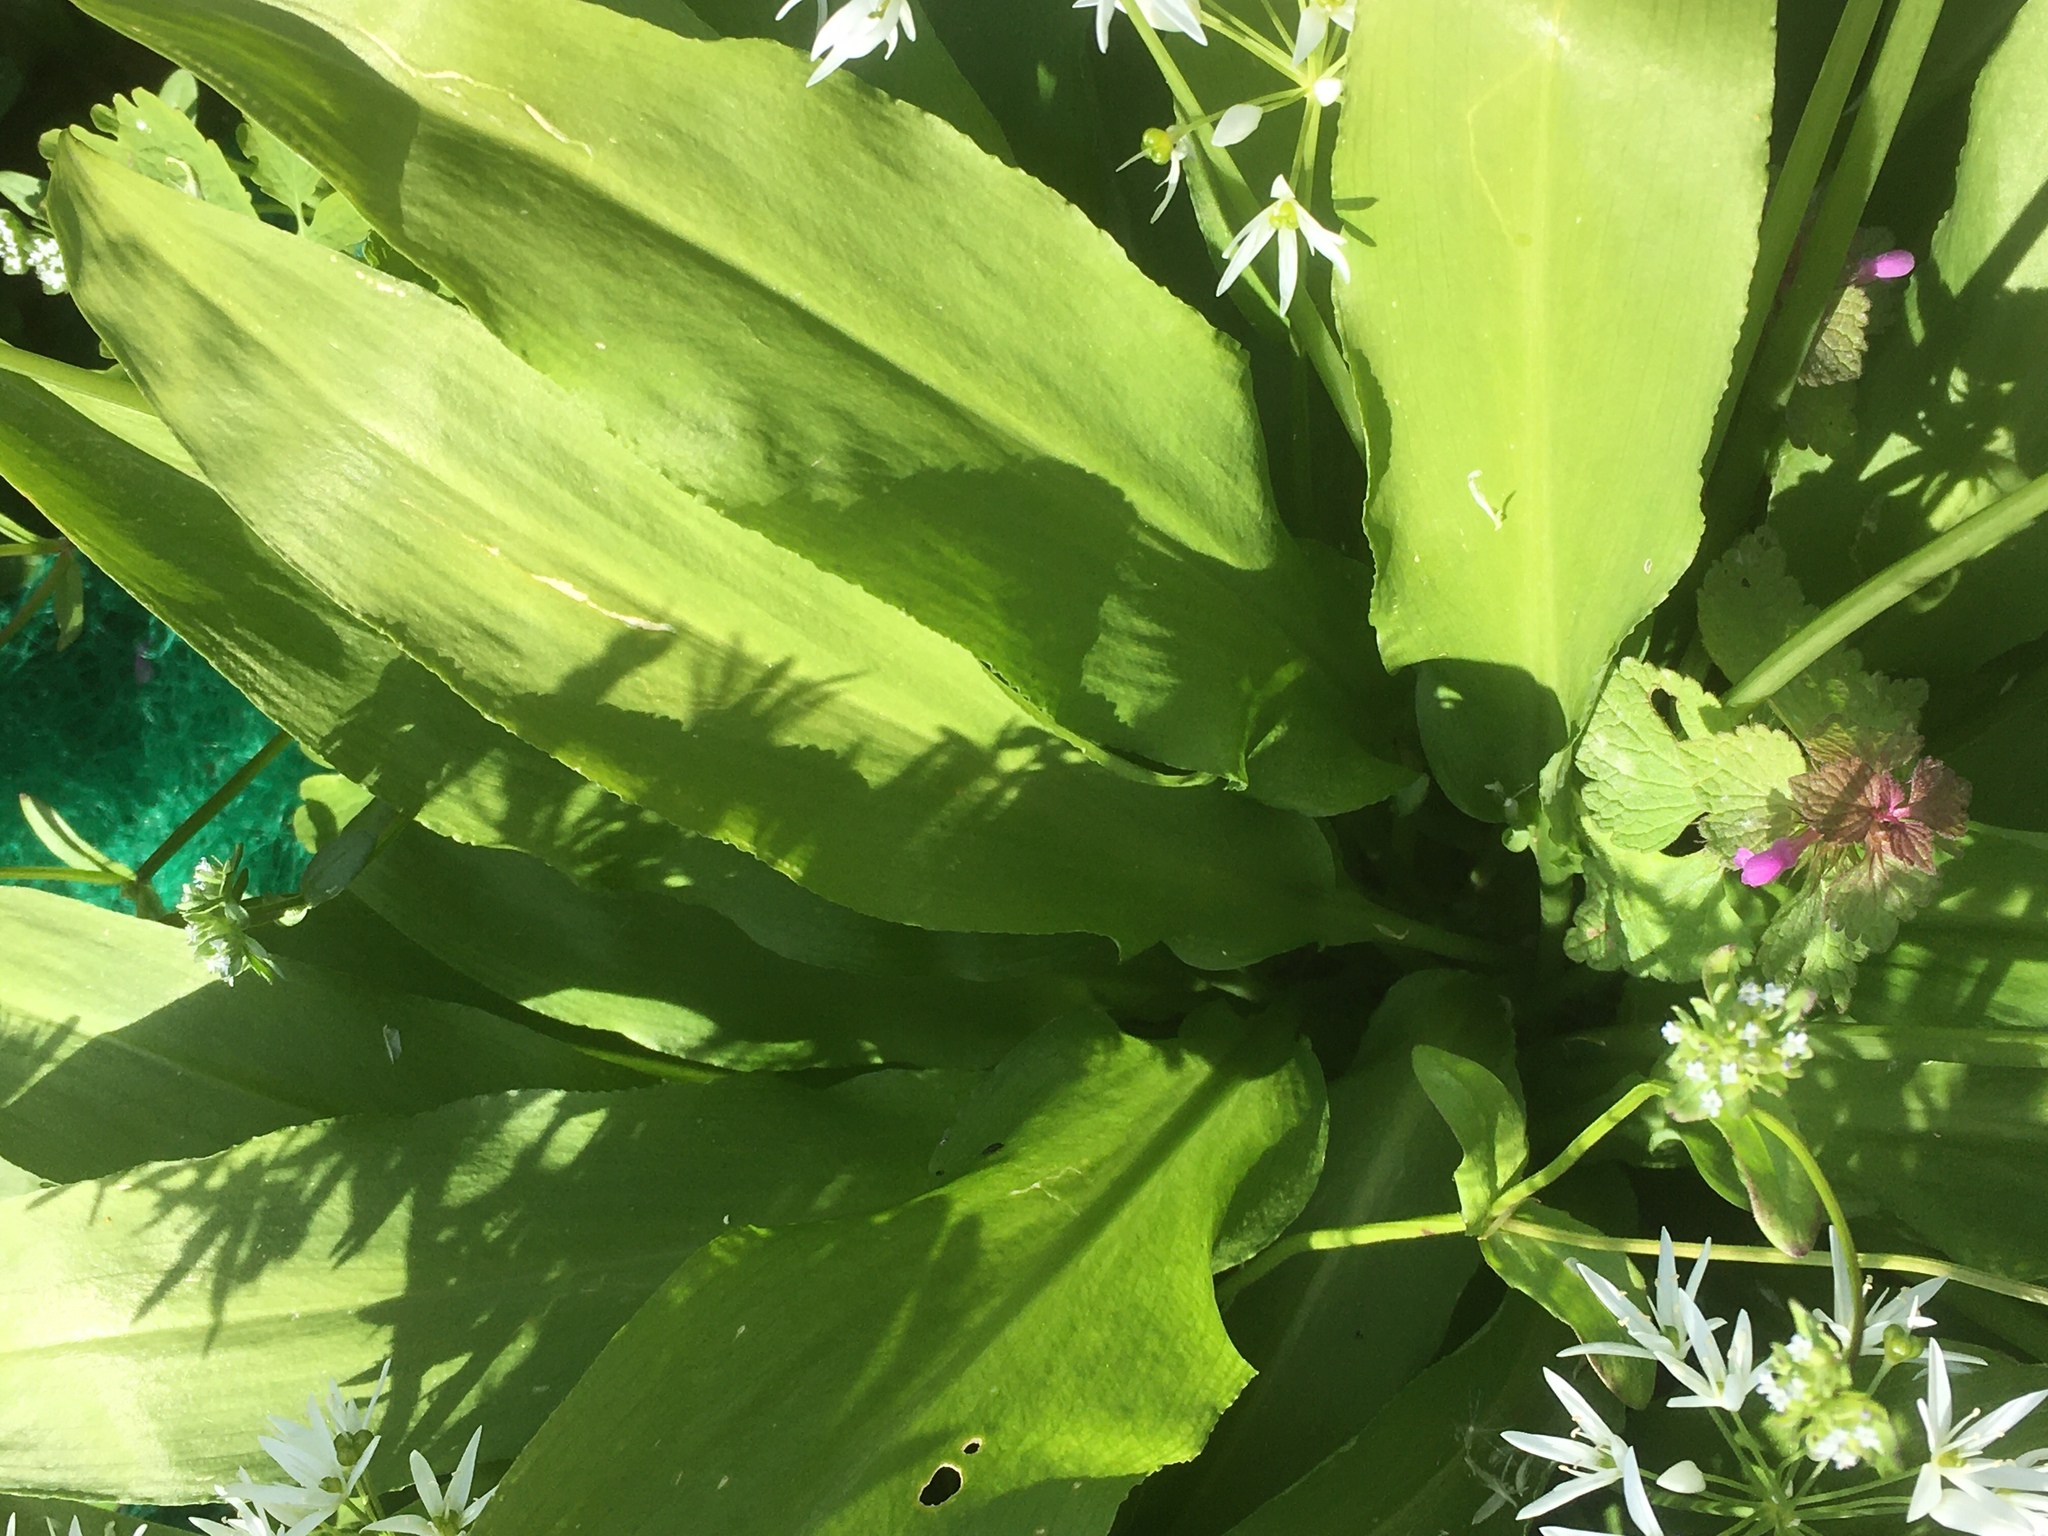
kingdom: Plantae
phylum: Tracheophyta
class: Liliopsida
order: Asparagales
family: Amaryllidaceae
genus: Allium
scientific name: Allium ursinum
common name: Ramsons
